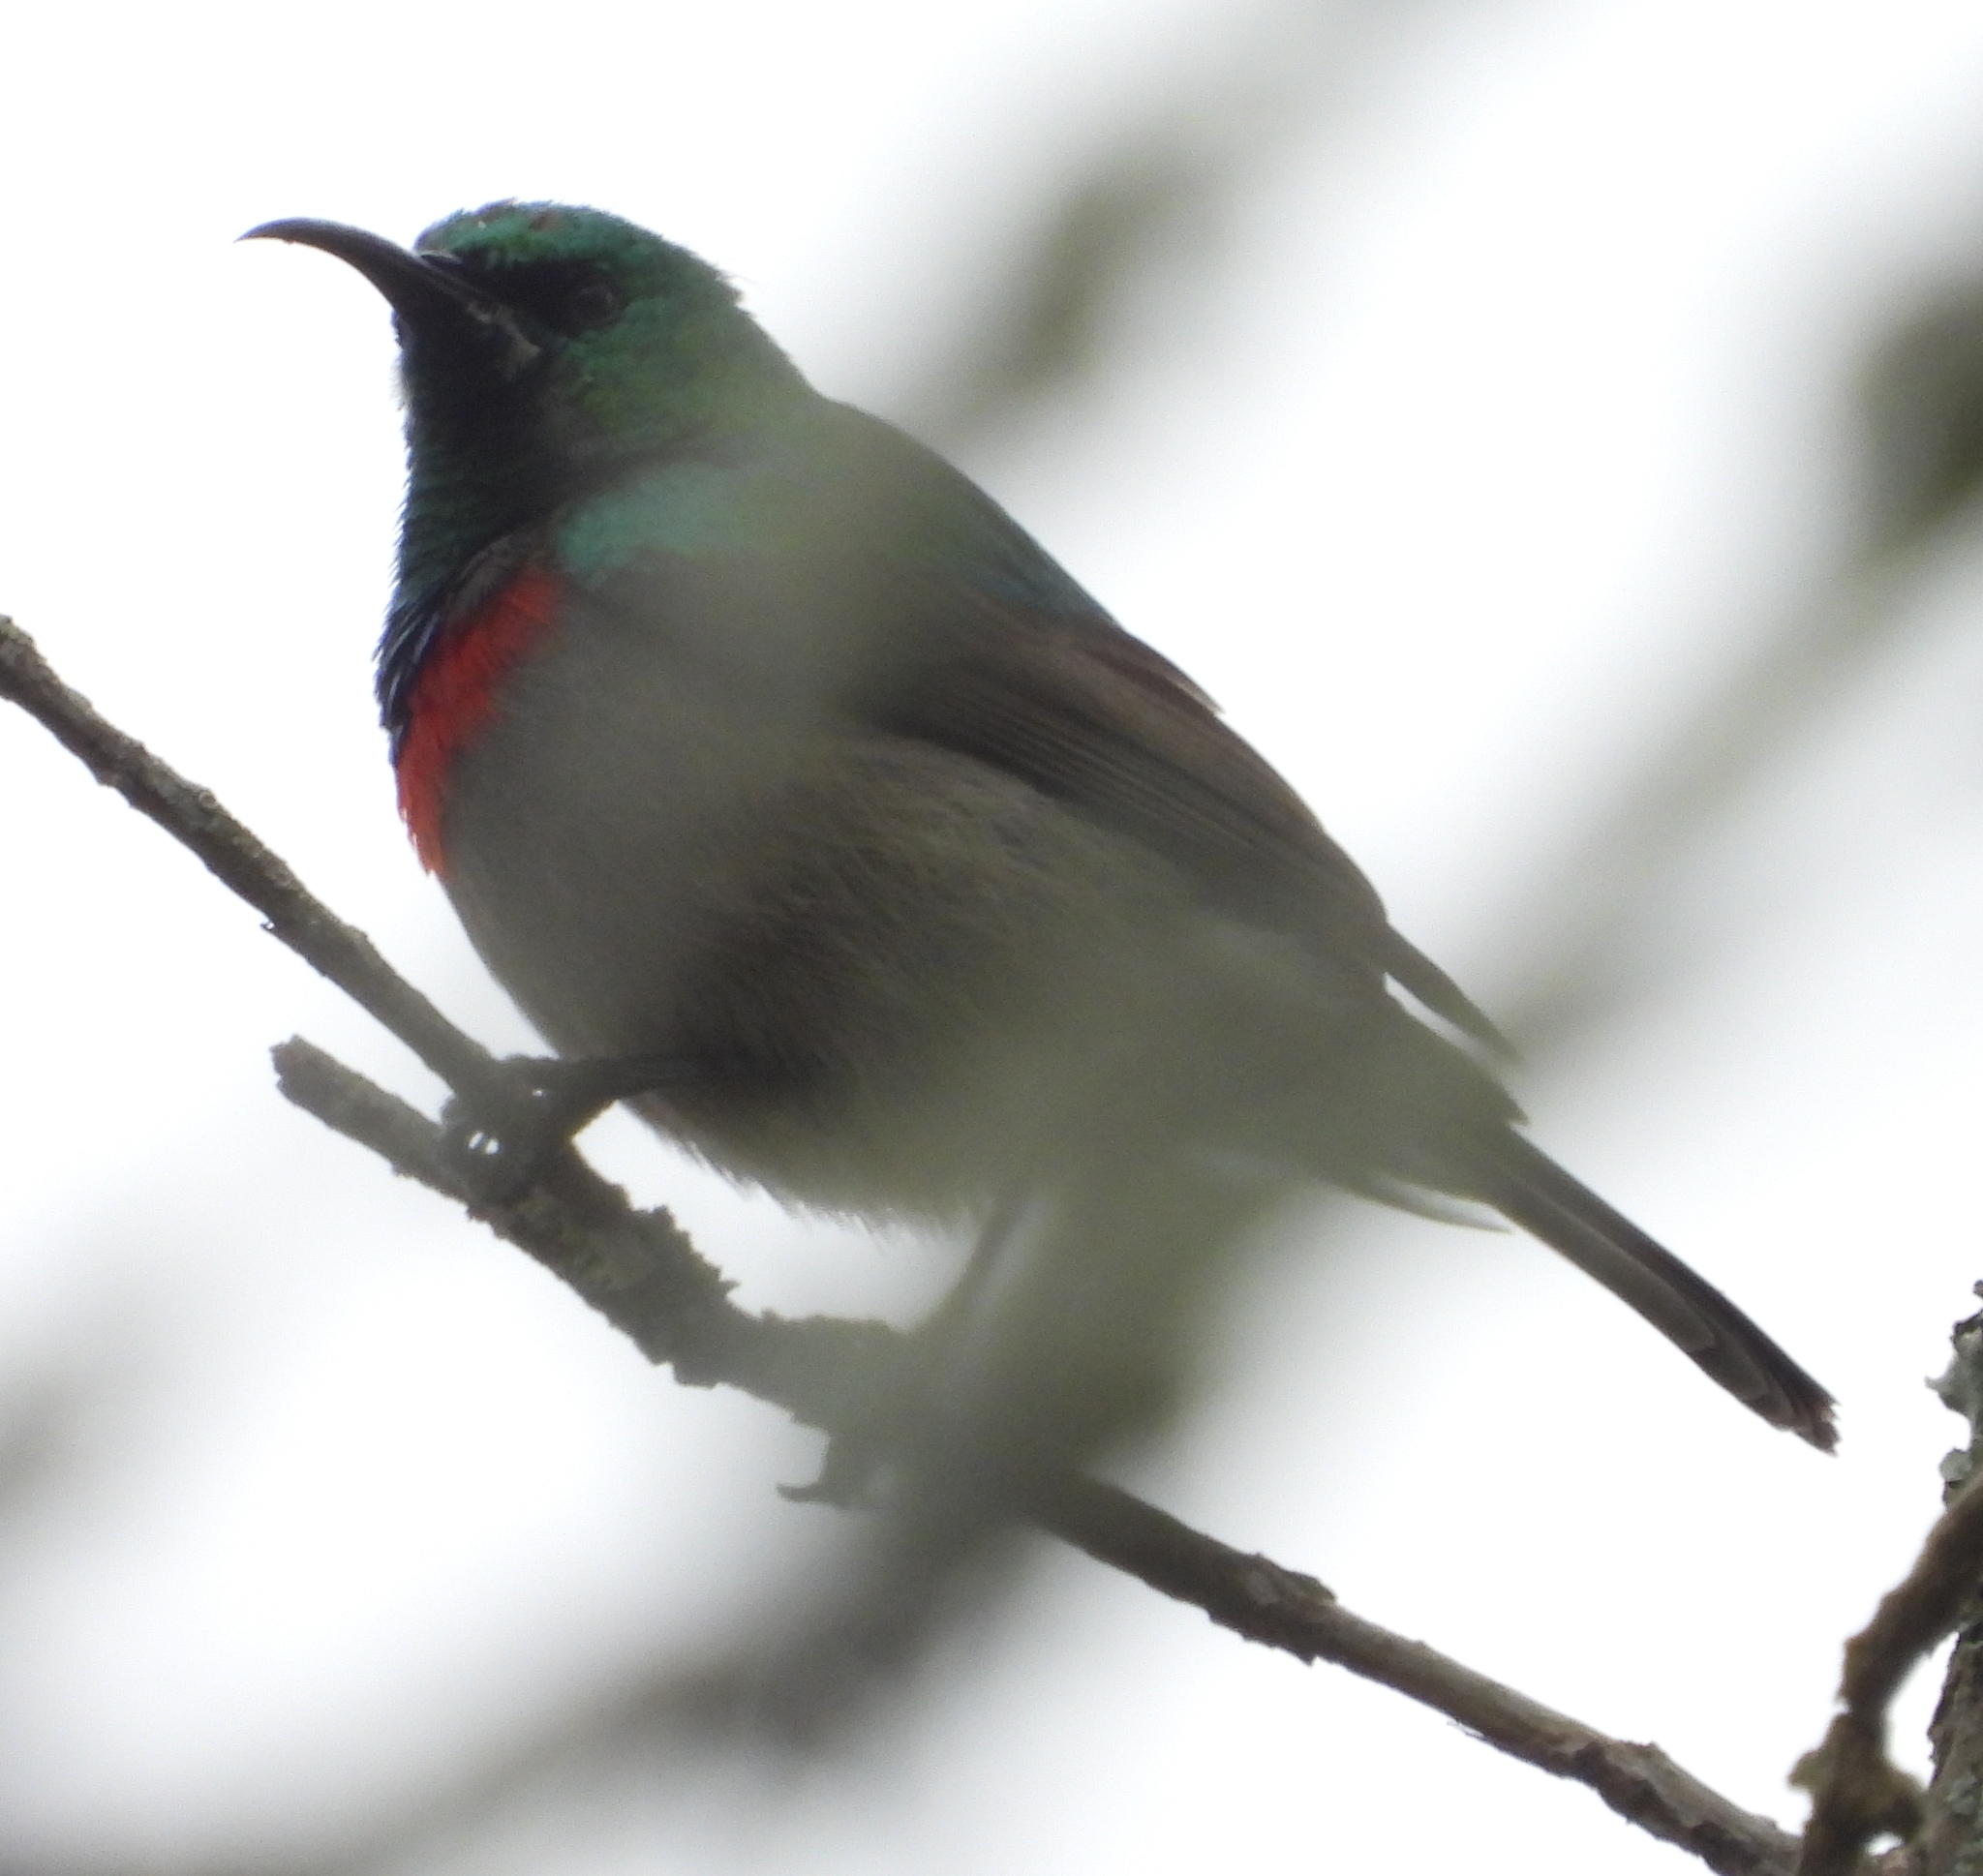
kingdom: Animalia
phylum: Chordata
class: Aves
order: Passeriformes
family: Nectariniidae
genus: Cinnyris
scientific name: Cinnyris chalybeus
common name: Southern double-collared sunbird
